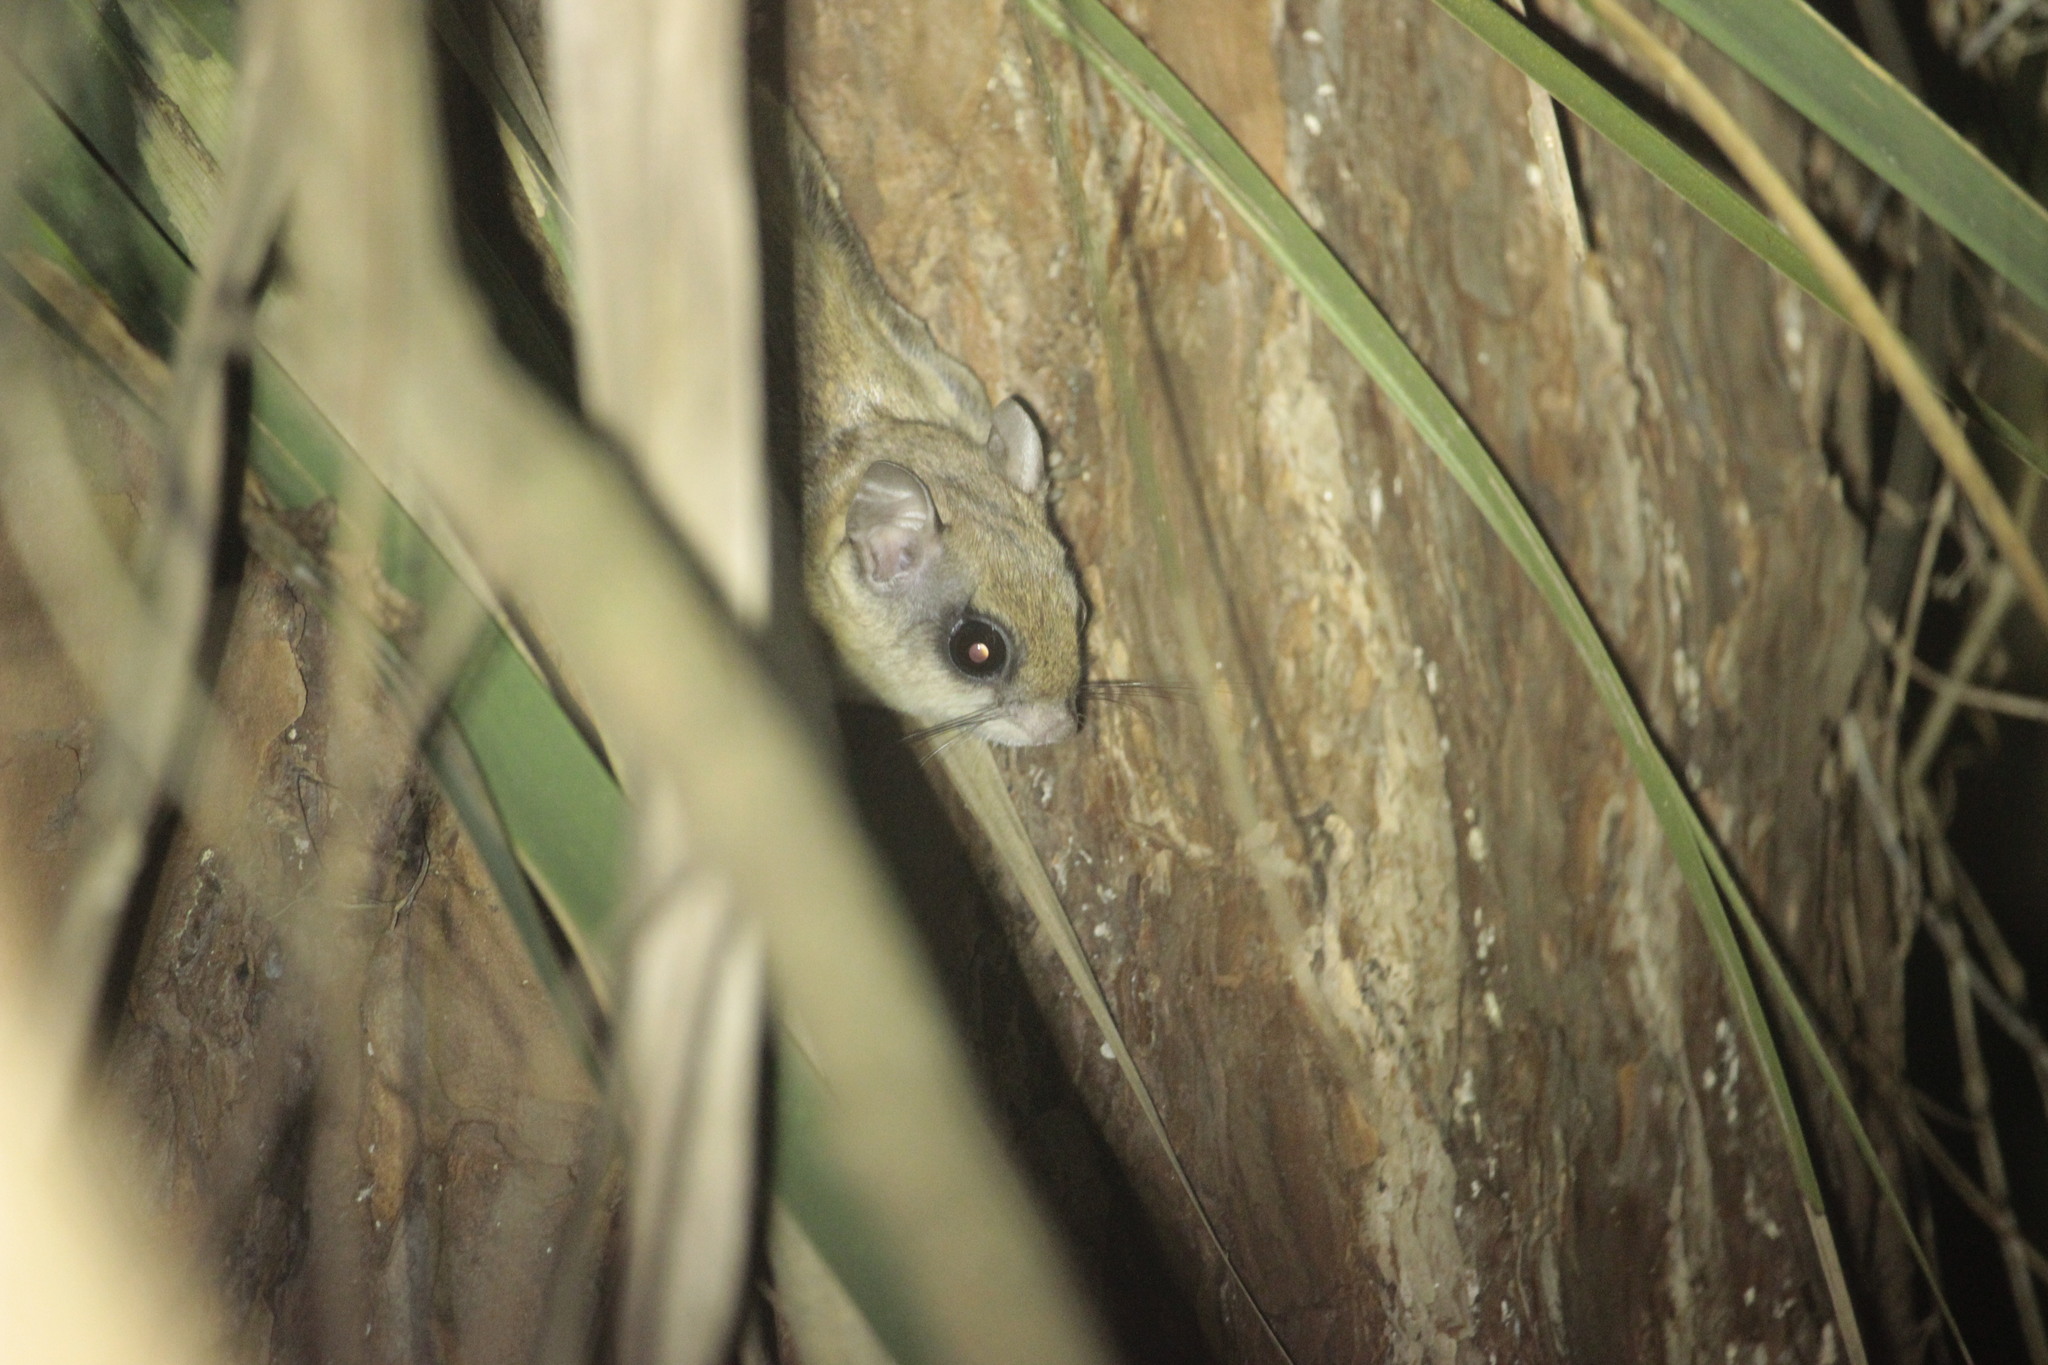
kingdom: Animalia
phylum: Chordata
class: Mammalia
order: Rodentia
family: Sciuridae
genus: Glaucomys
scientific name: Glaucomys volans
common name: Southern flying squirrel
